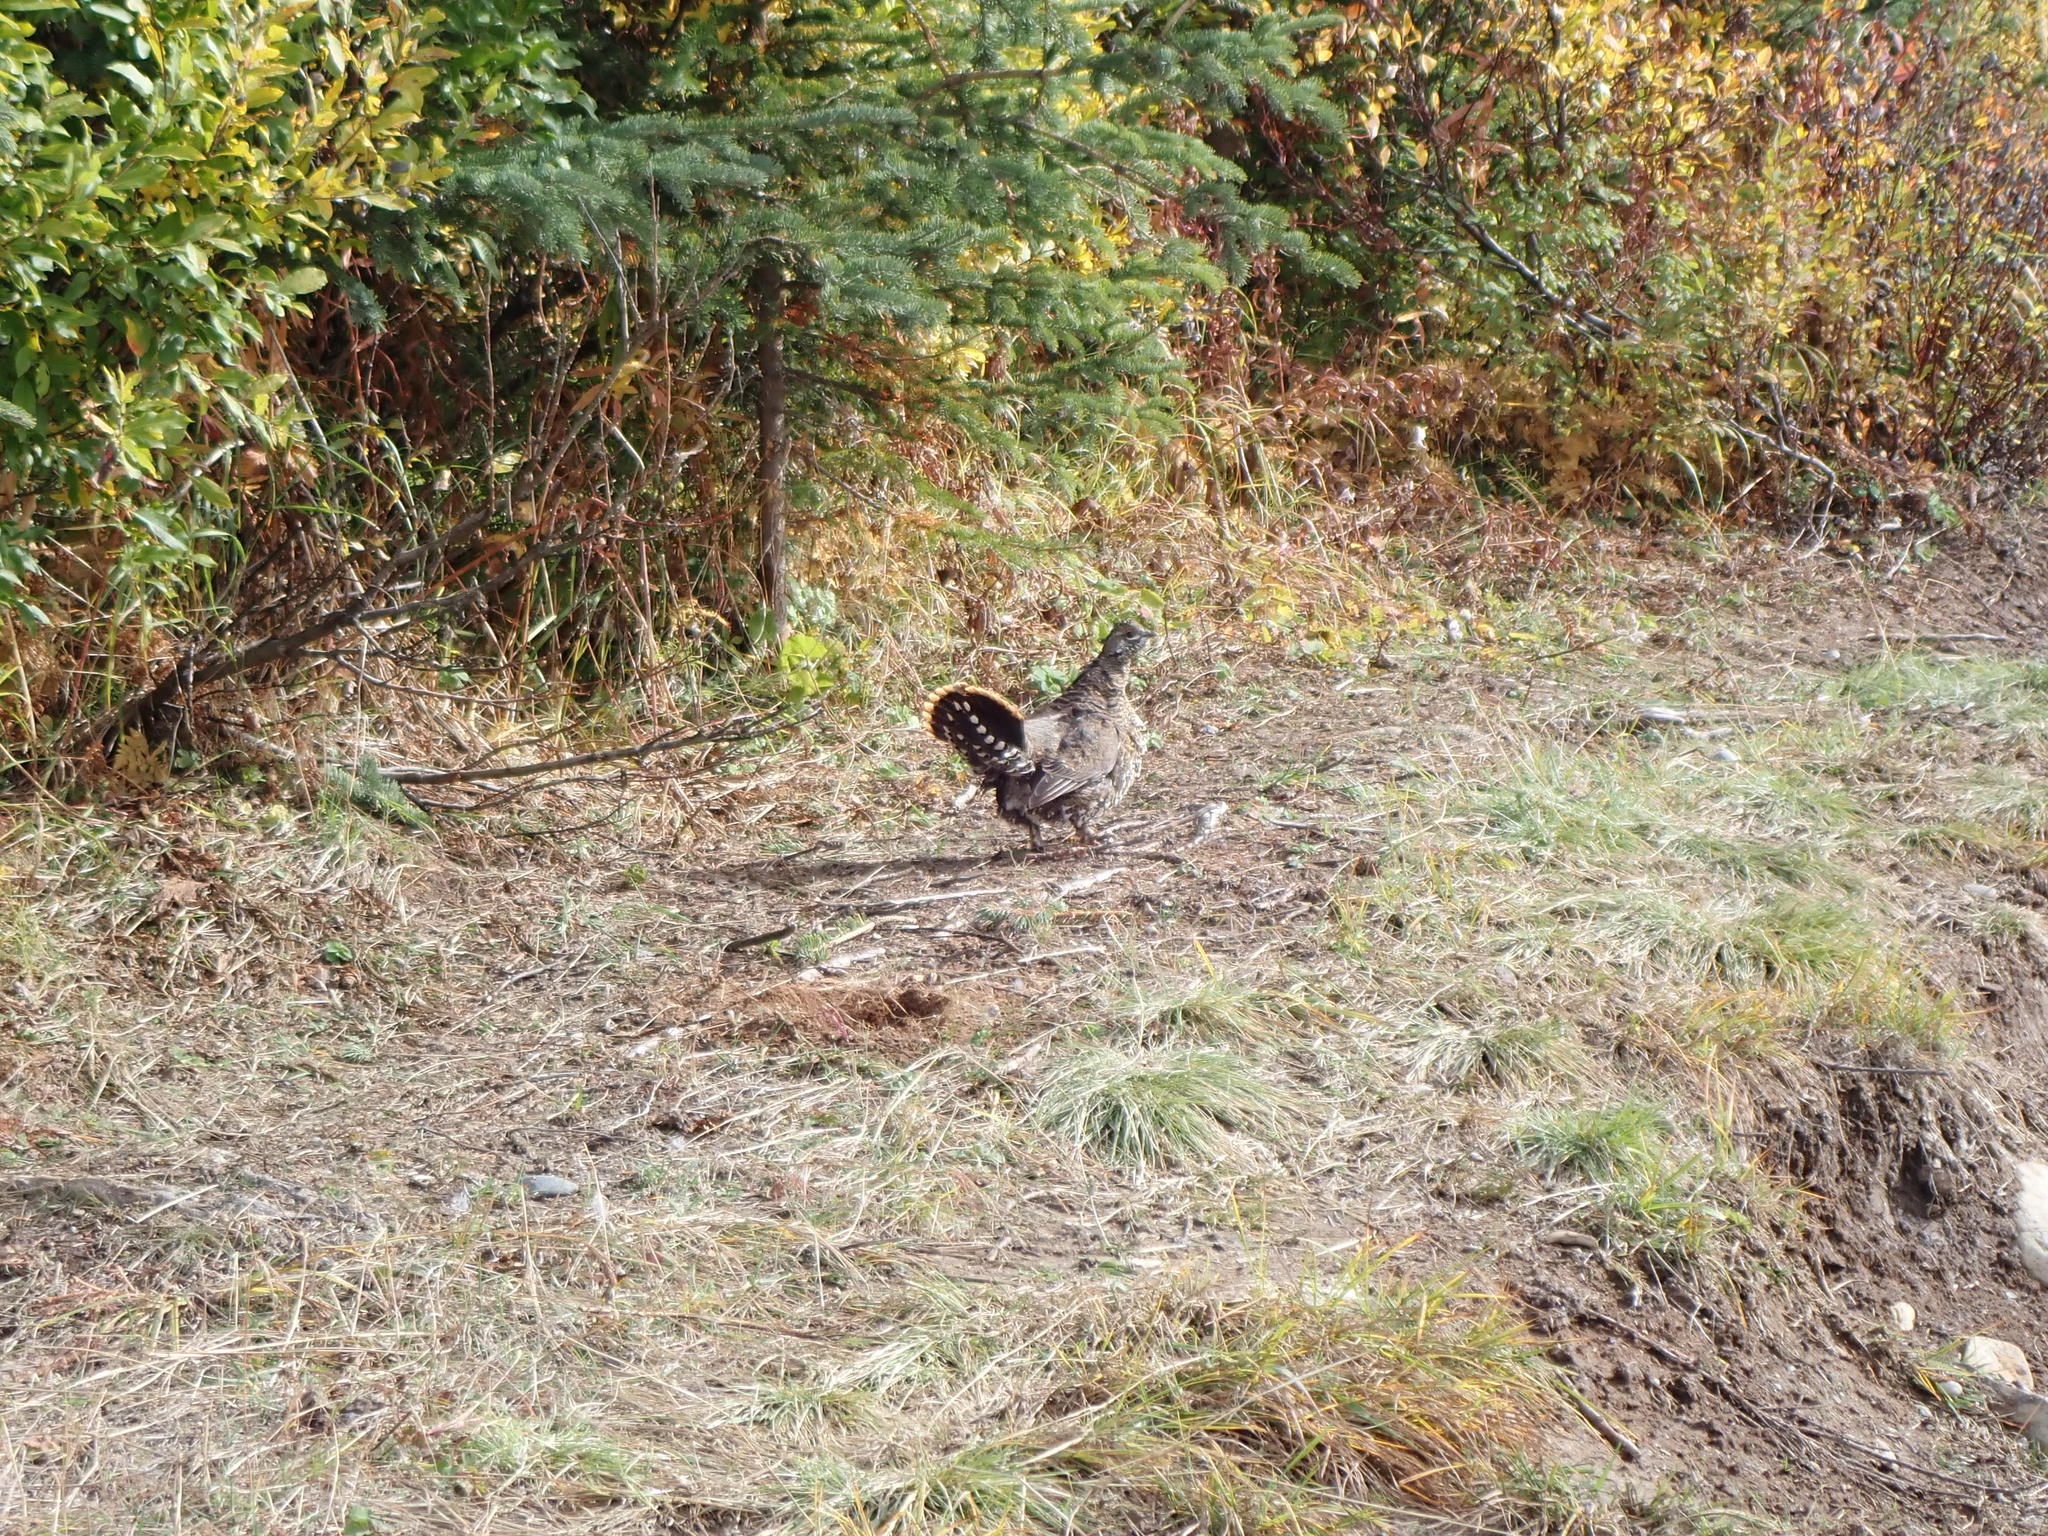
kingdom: Animalia
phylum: Chordata
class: Aves
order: Galliformes
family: Phasianidae
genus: Canachites
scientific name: Canachites canadensis
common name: Spruce grouse
